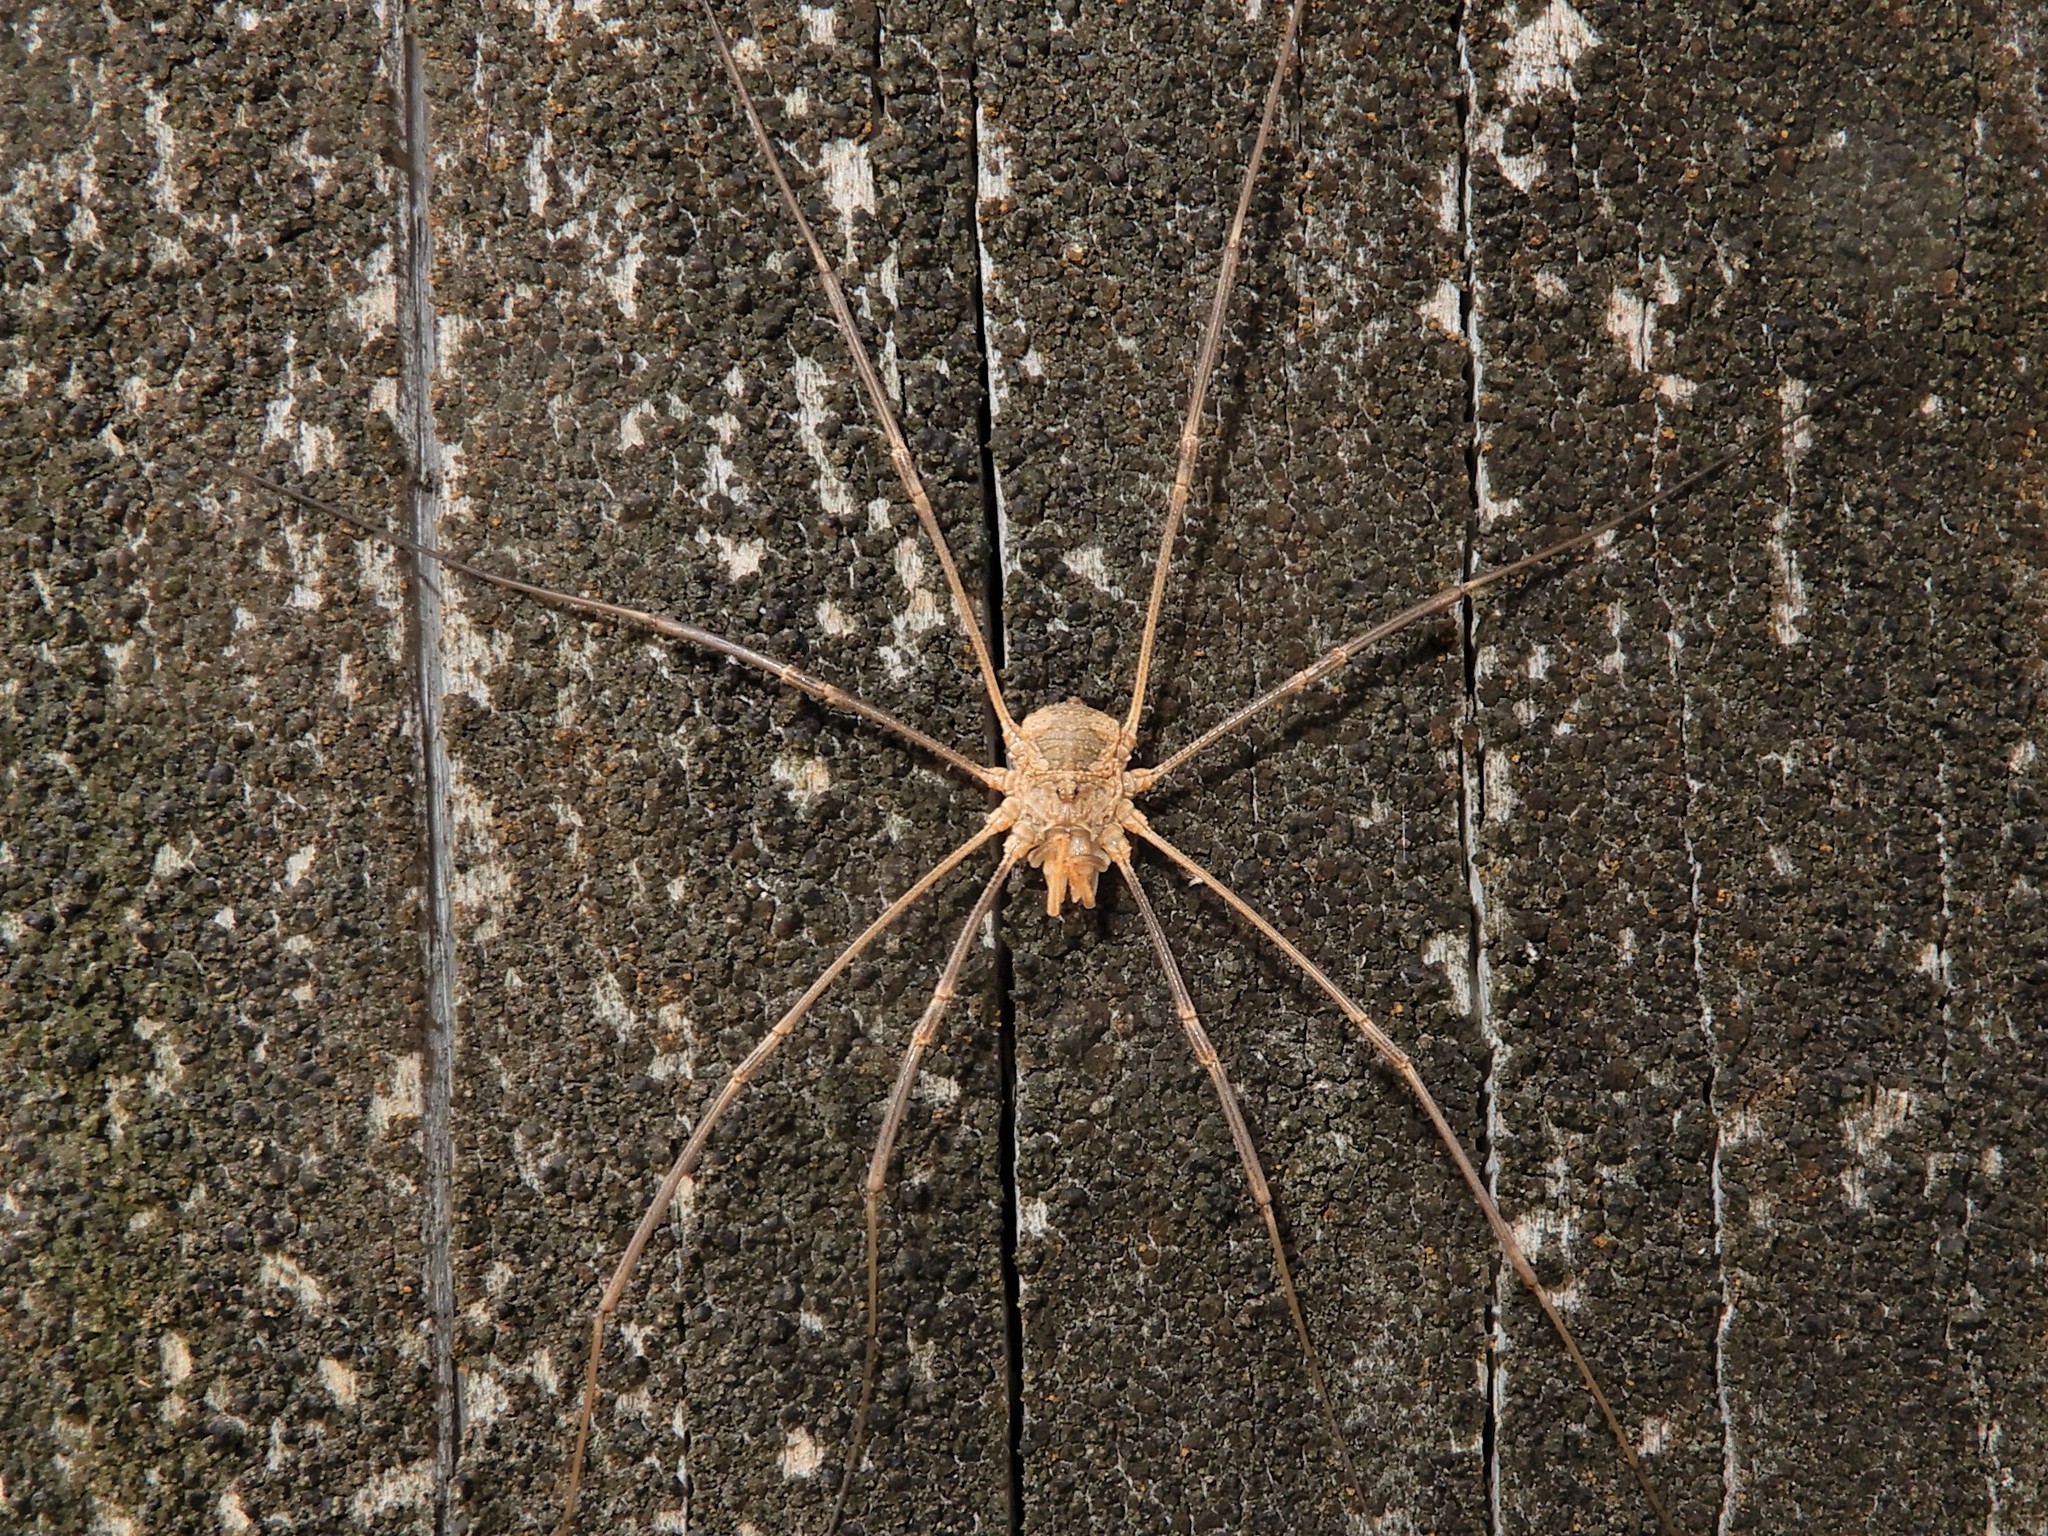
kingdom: Animalia
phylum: Arthropoda
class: Arachnida
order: Opiliones
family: Phalangiidae
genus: Phalangium
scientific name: Phalangium opilio
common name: Daddy longleg
